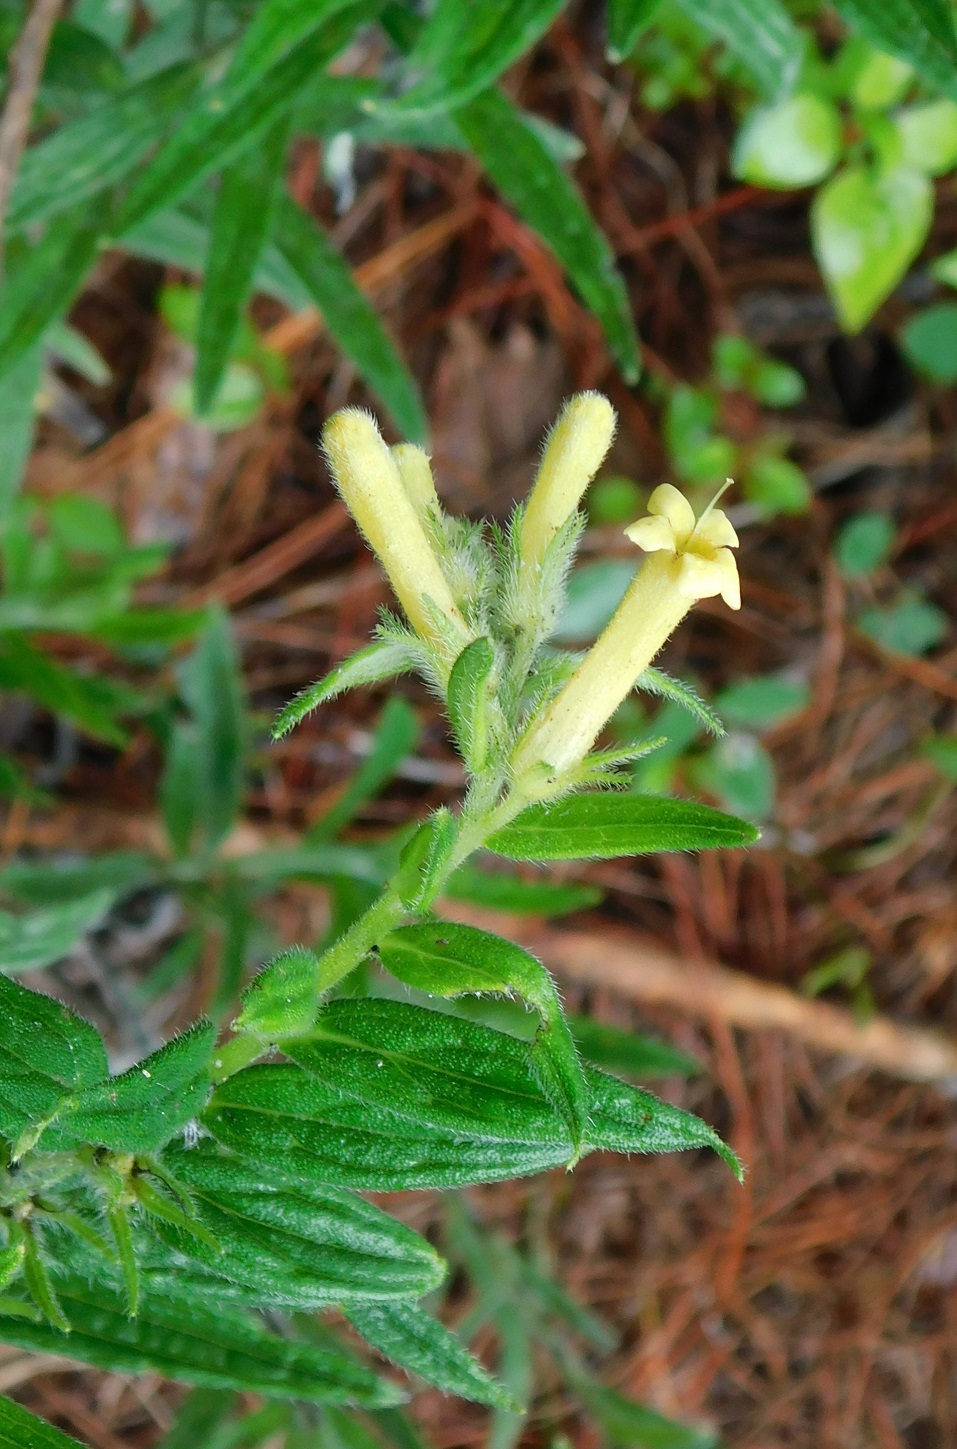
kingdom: Plantae
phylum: Tracheophyta
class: Magnoliopsida
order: Boraginales
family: Boraginaceae
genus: Lithospermum
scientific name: Lithospermum guatemalense
